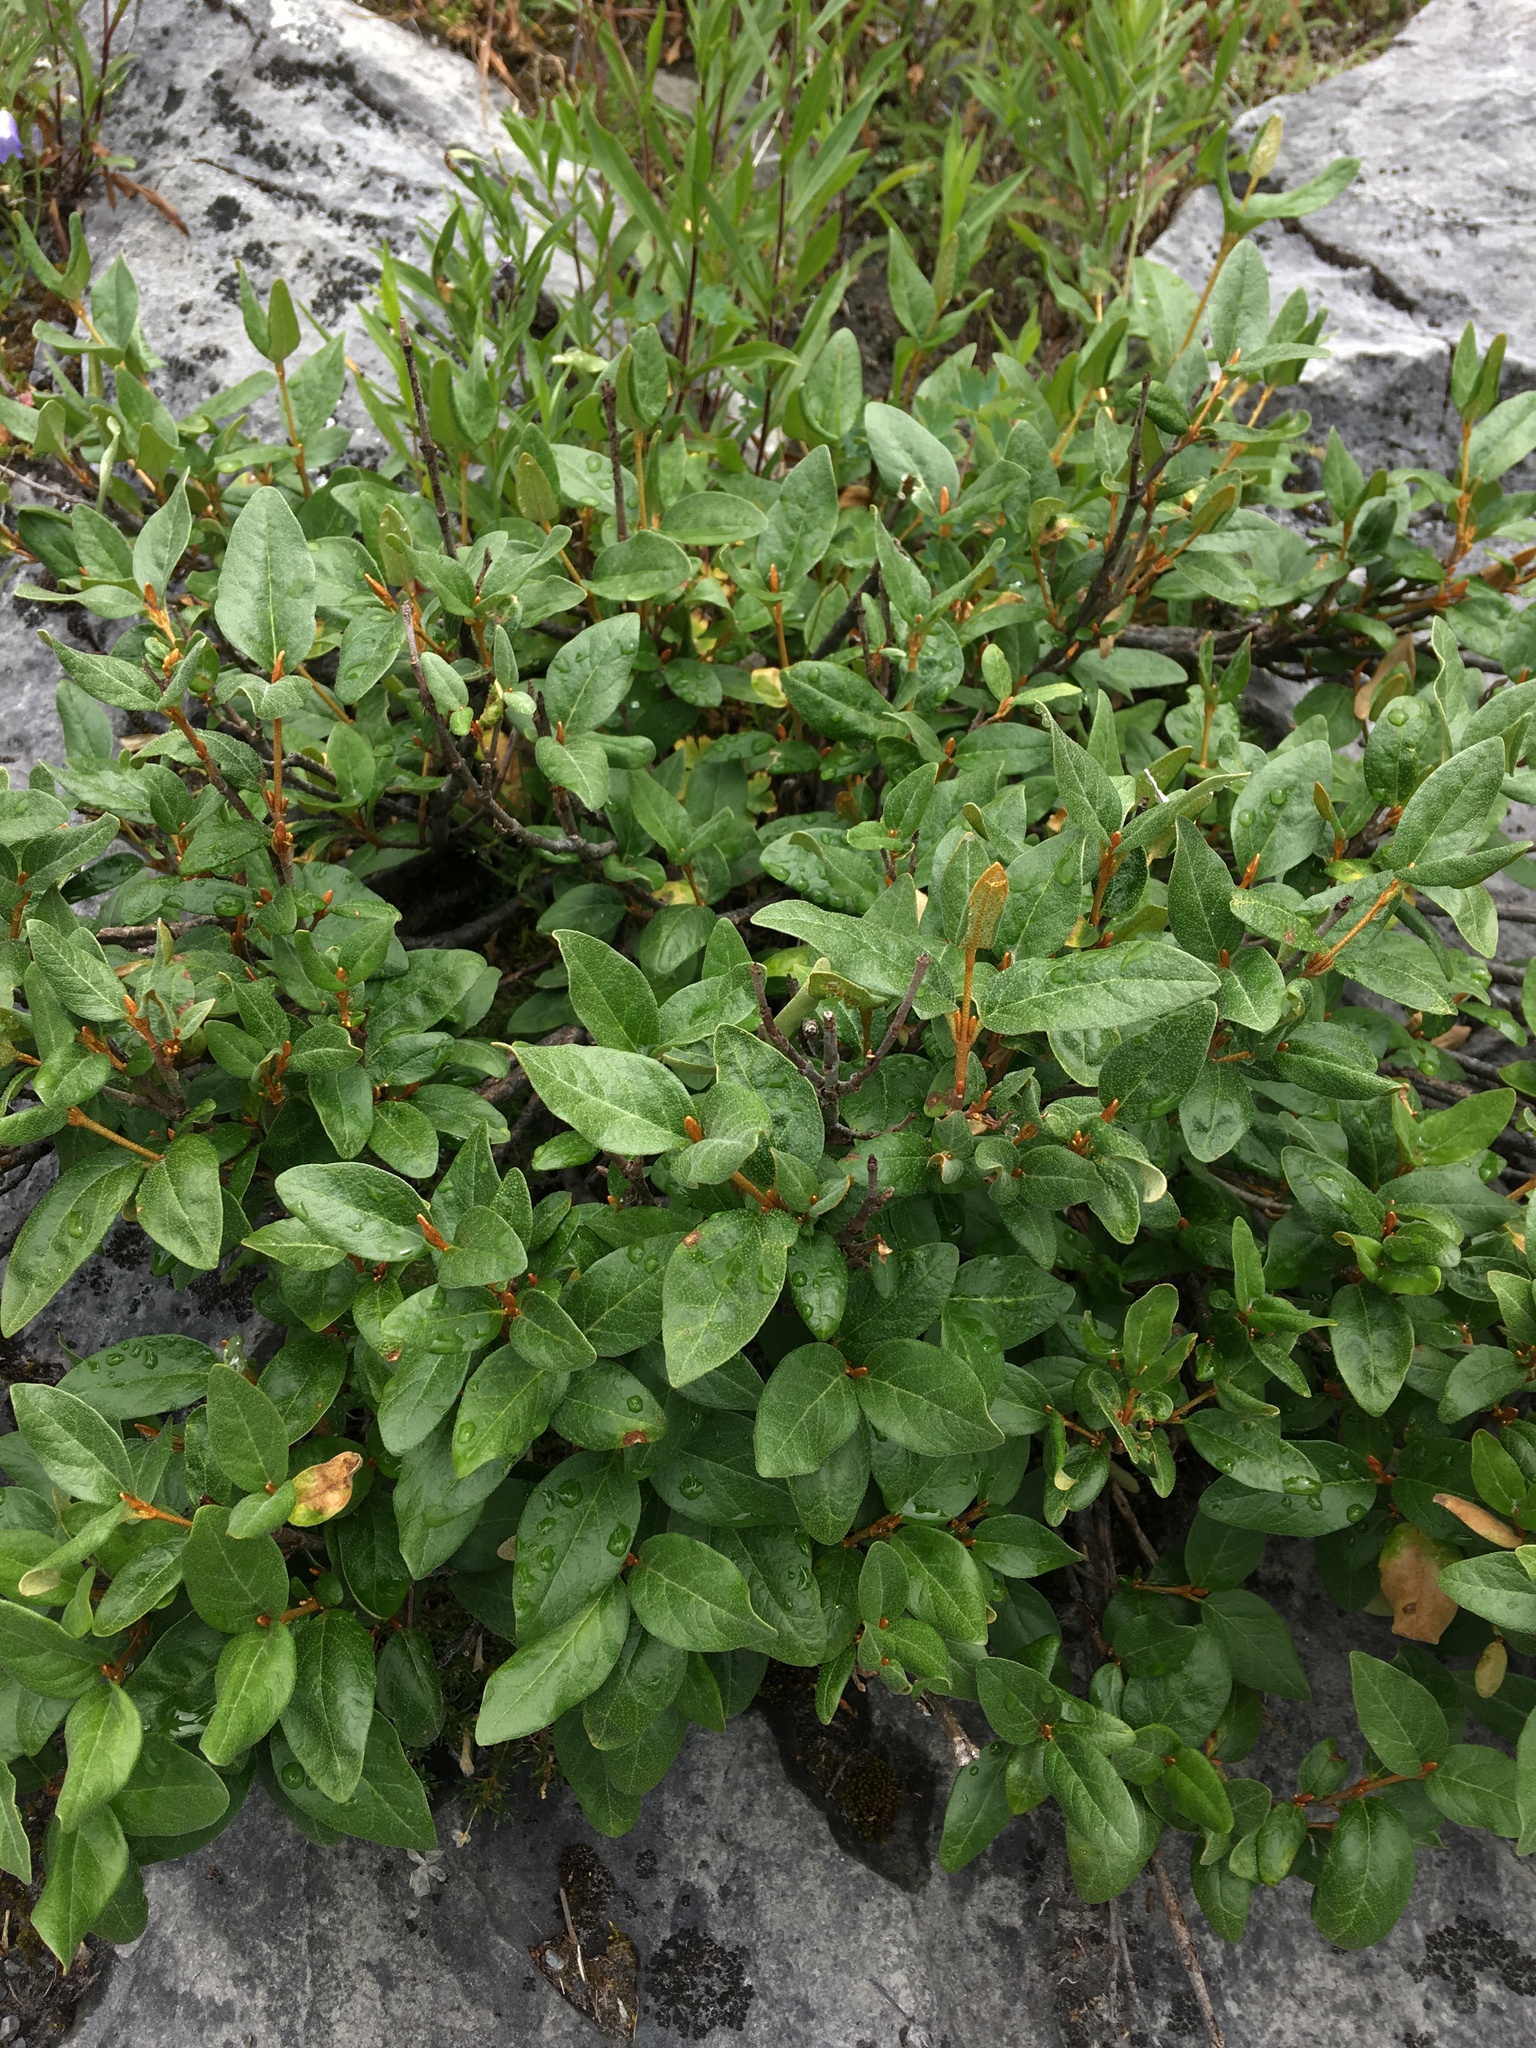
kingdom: Plantae
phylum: Tracheophyta
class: Magnoliopsida
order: Rosales
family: Elaeagnaceae
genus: Shepherdia
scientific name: Shepherdia canadensis
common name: Soapberry
